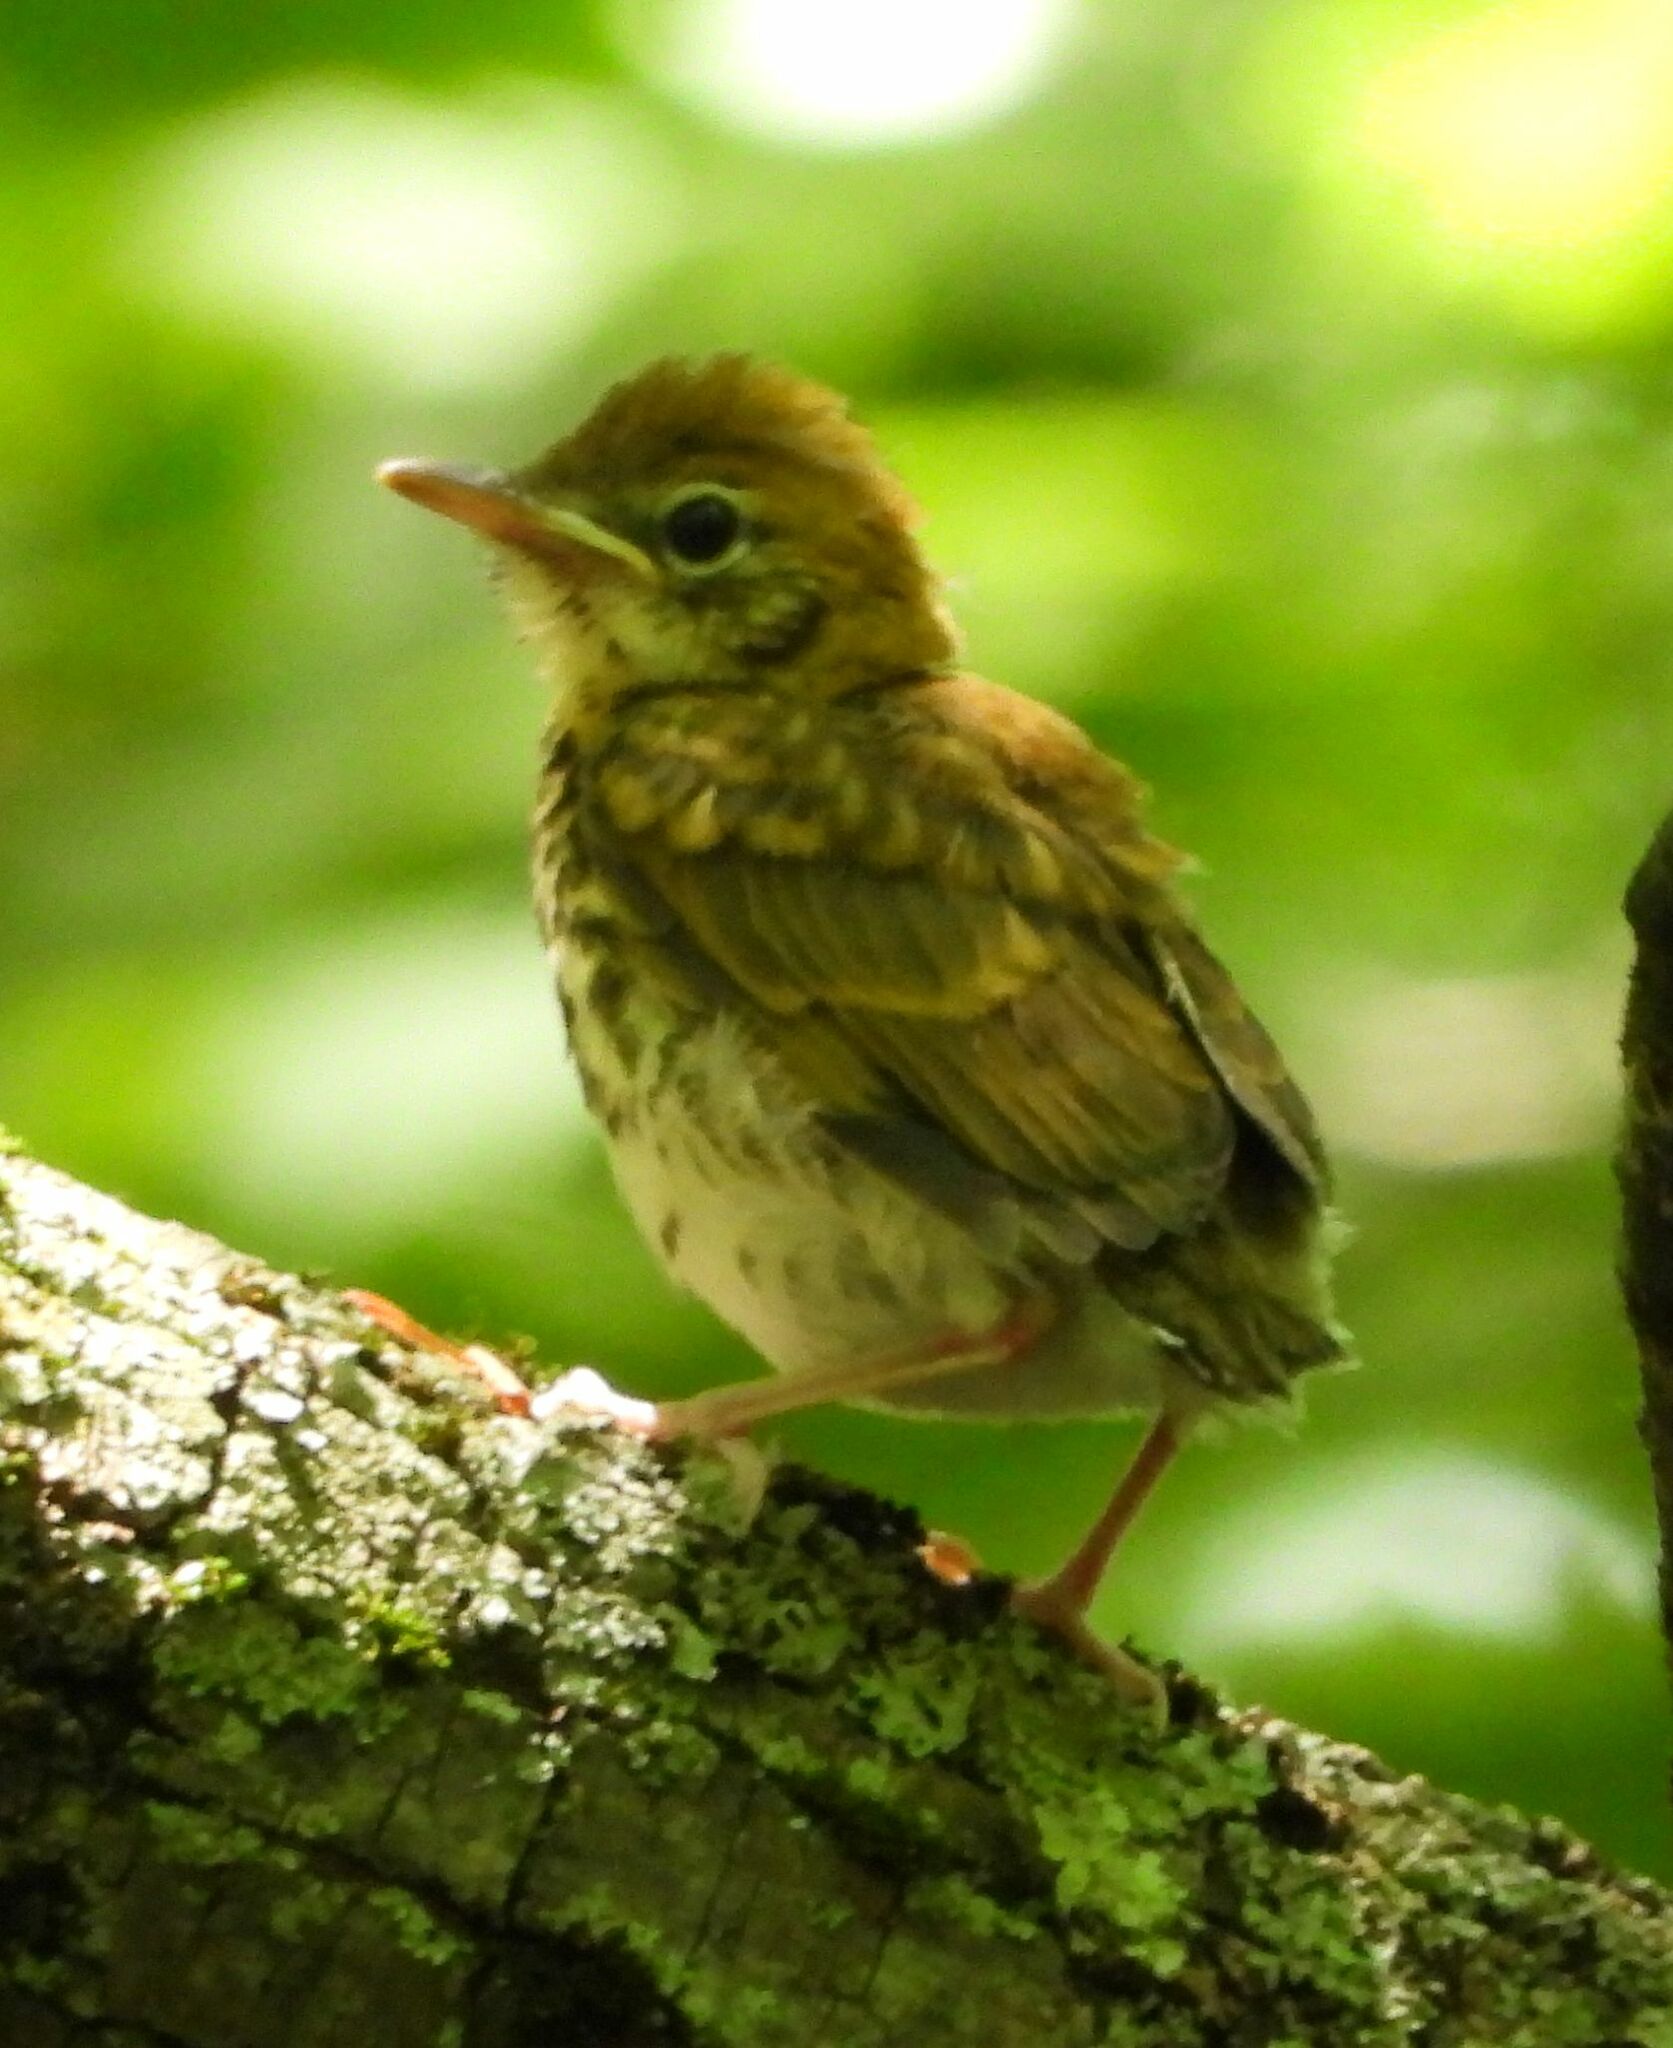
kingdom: Animalia
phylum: Chordata
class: Aves
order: Passeriformes
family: Turdidae
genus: Hylocichla
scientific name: Hylocichla mustelina
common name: Wood thrush
